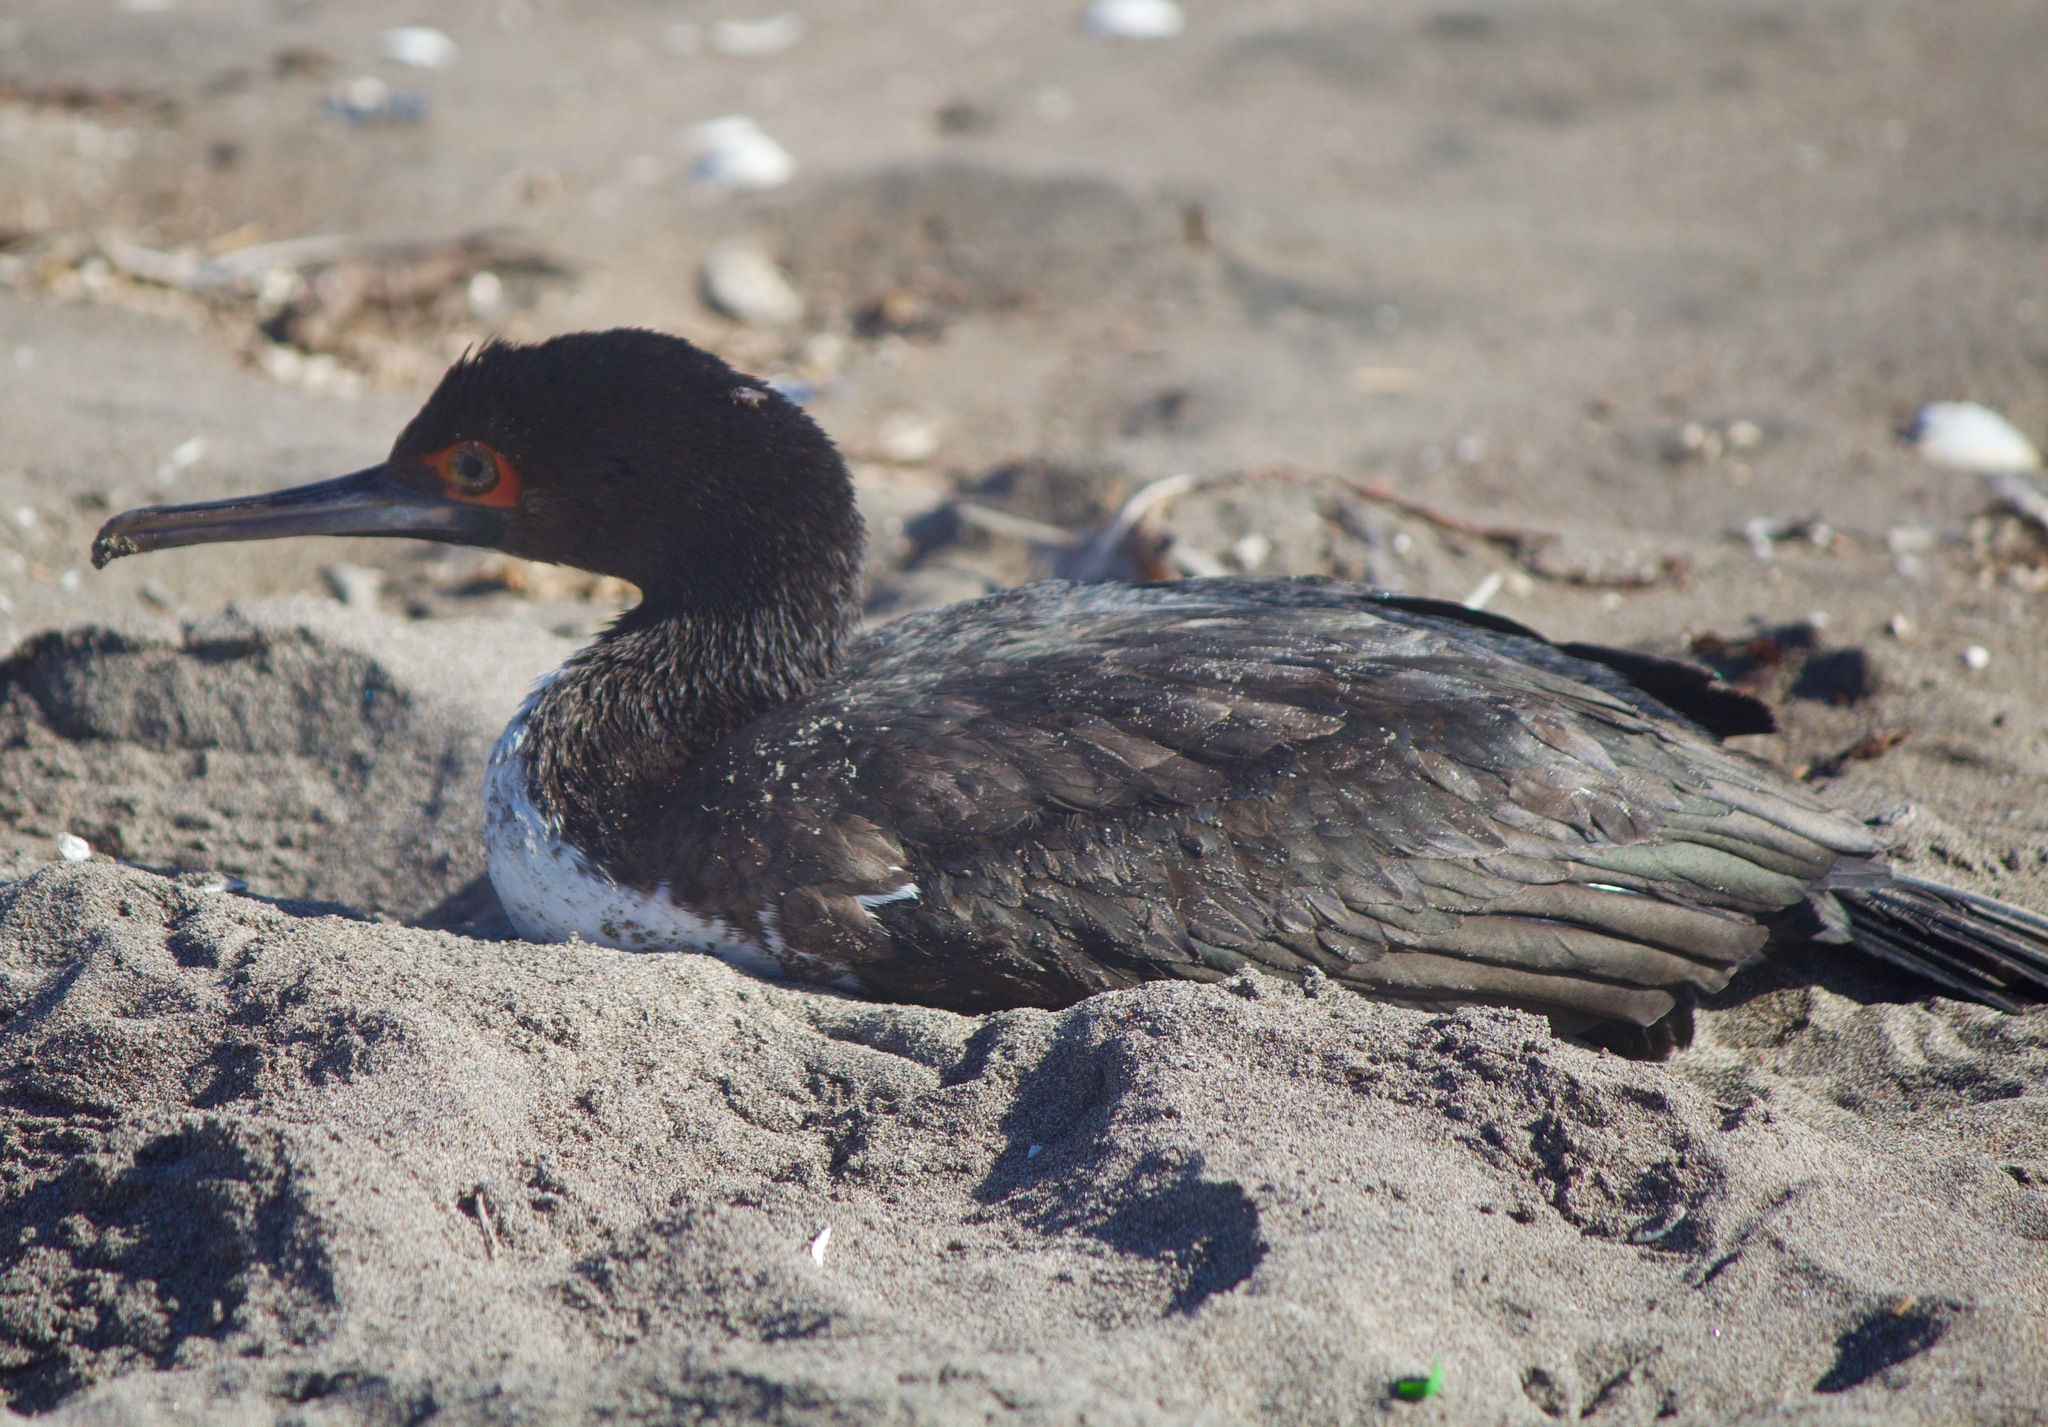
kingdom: Animalia
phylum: Chordata
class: Aves
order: Suliformes
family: Phalacrocoracidae
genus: Leucocarbo
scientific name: Leucocarbo bougainvillii
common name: Guanay cormorant
